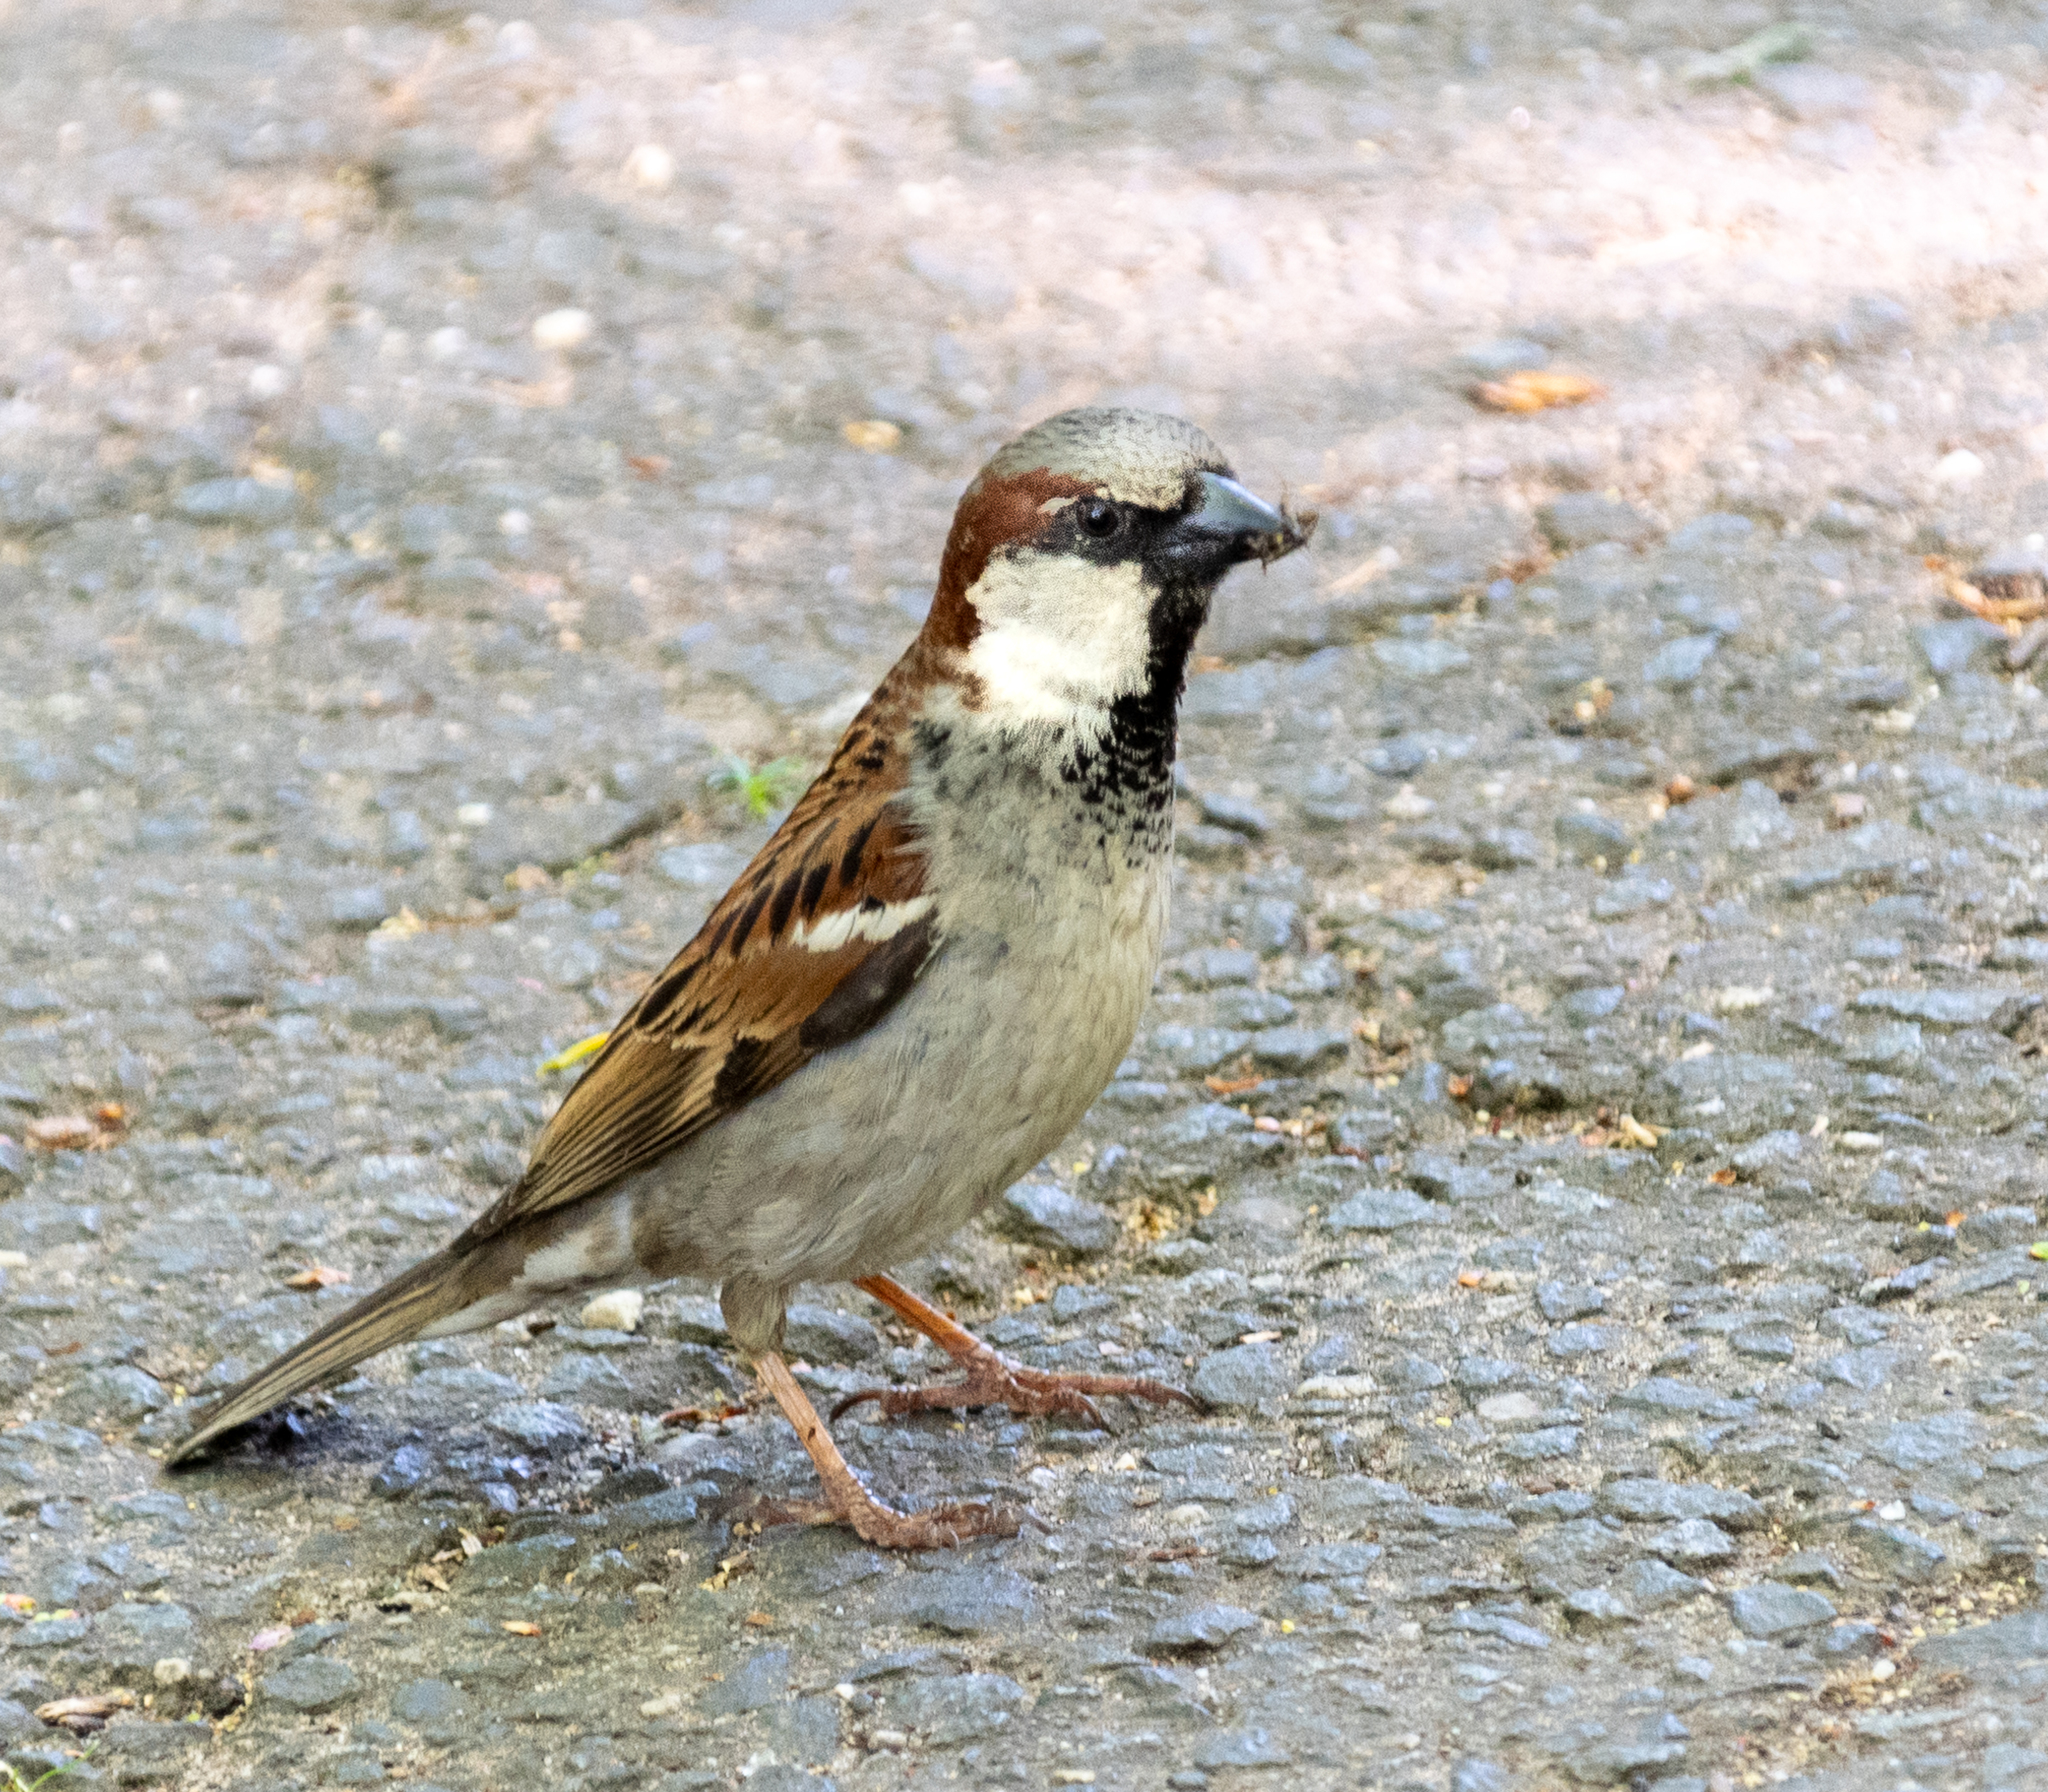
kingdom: Animalia
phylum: Chordata
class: Aves
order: Passeriformes
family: Passeridae
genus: Passer
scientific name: Passer domesticus
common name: House sparrow
